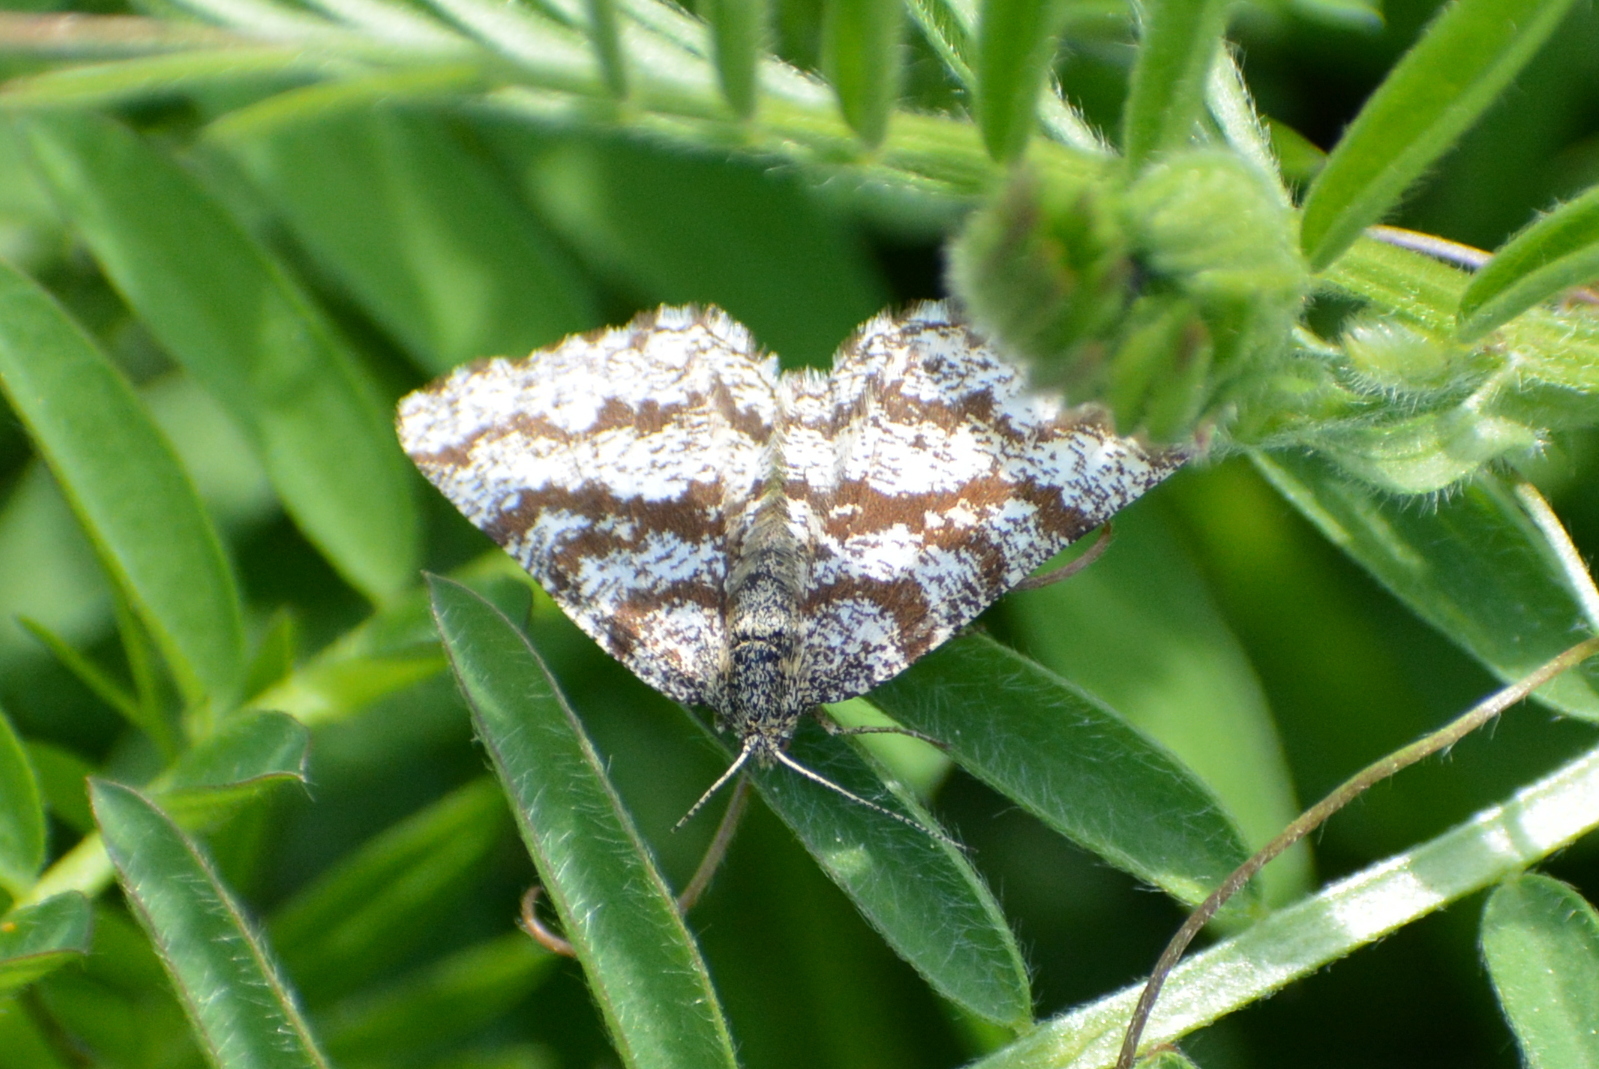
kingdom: Animalia
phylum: Arthropoda
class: Insecta
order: Lepidoptera
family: Geometridae
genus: Ematurga
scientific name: Ematurga atomaria
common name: Common heath
